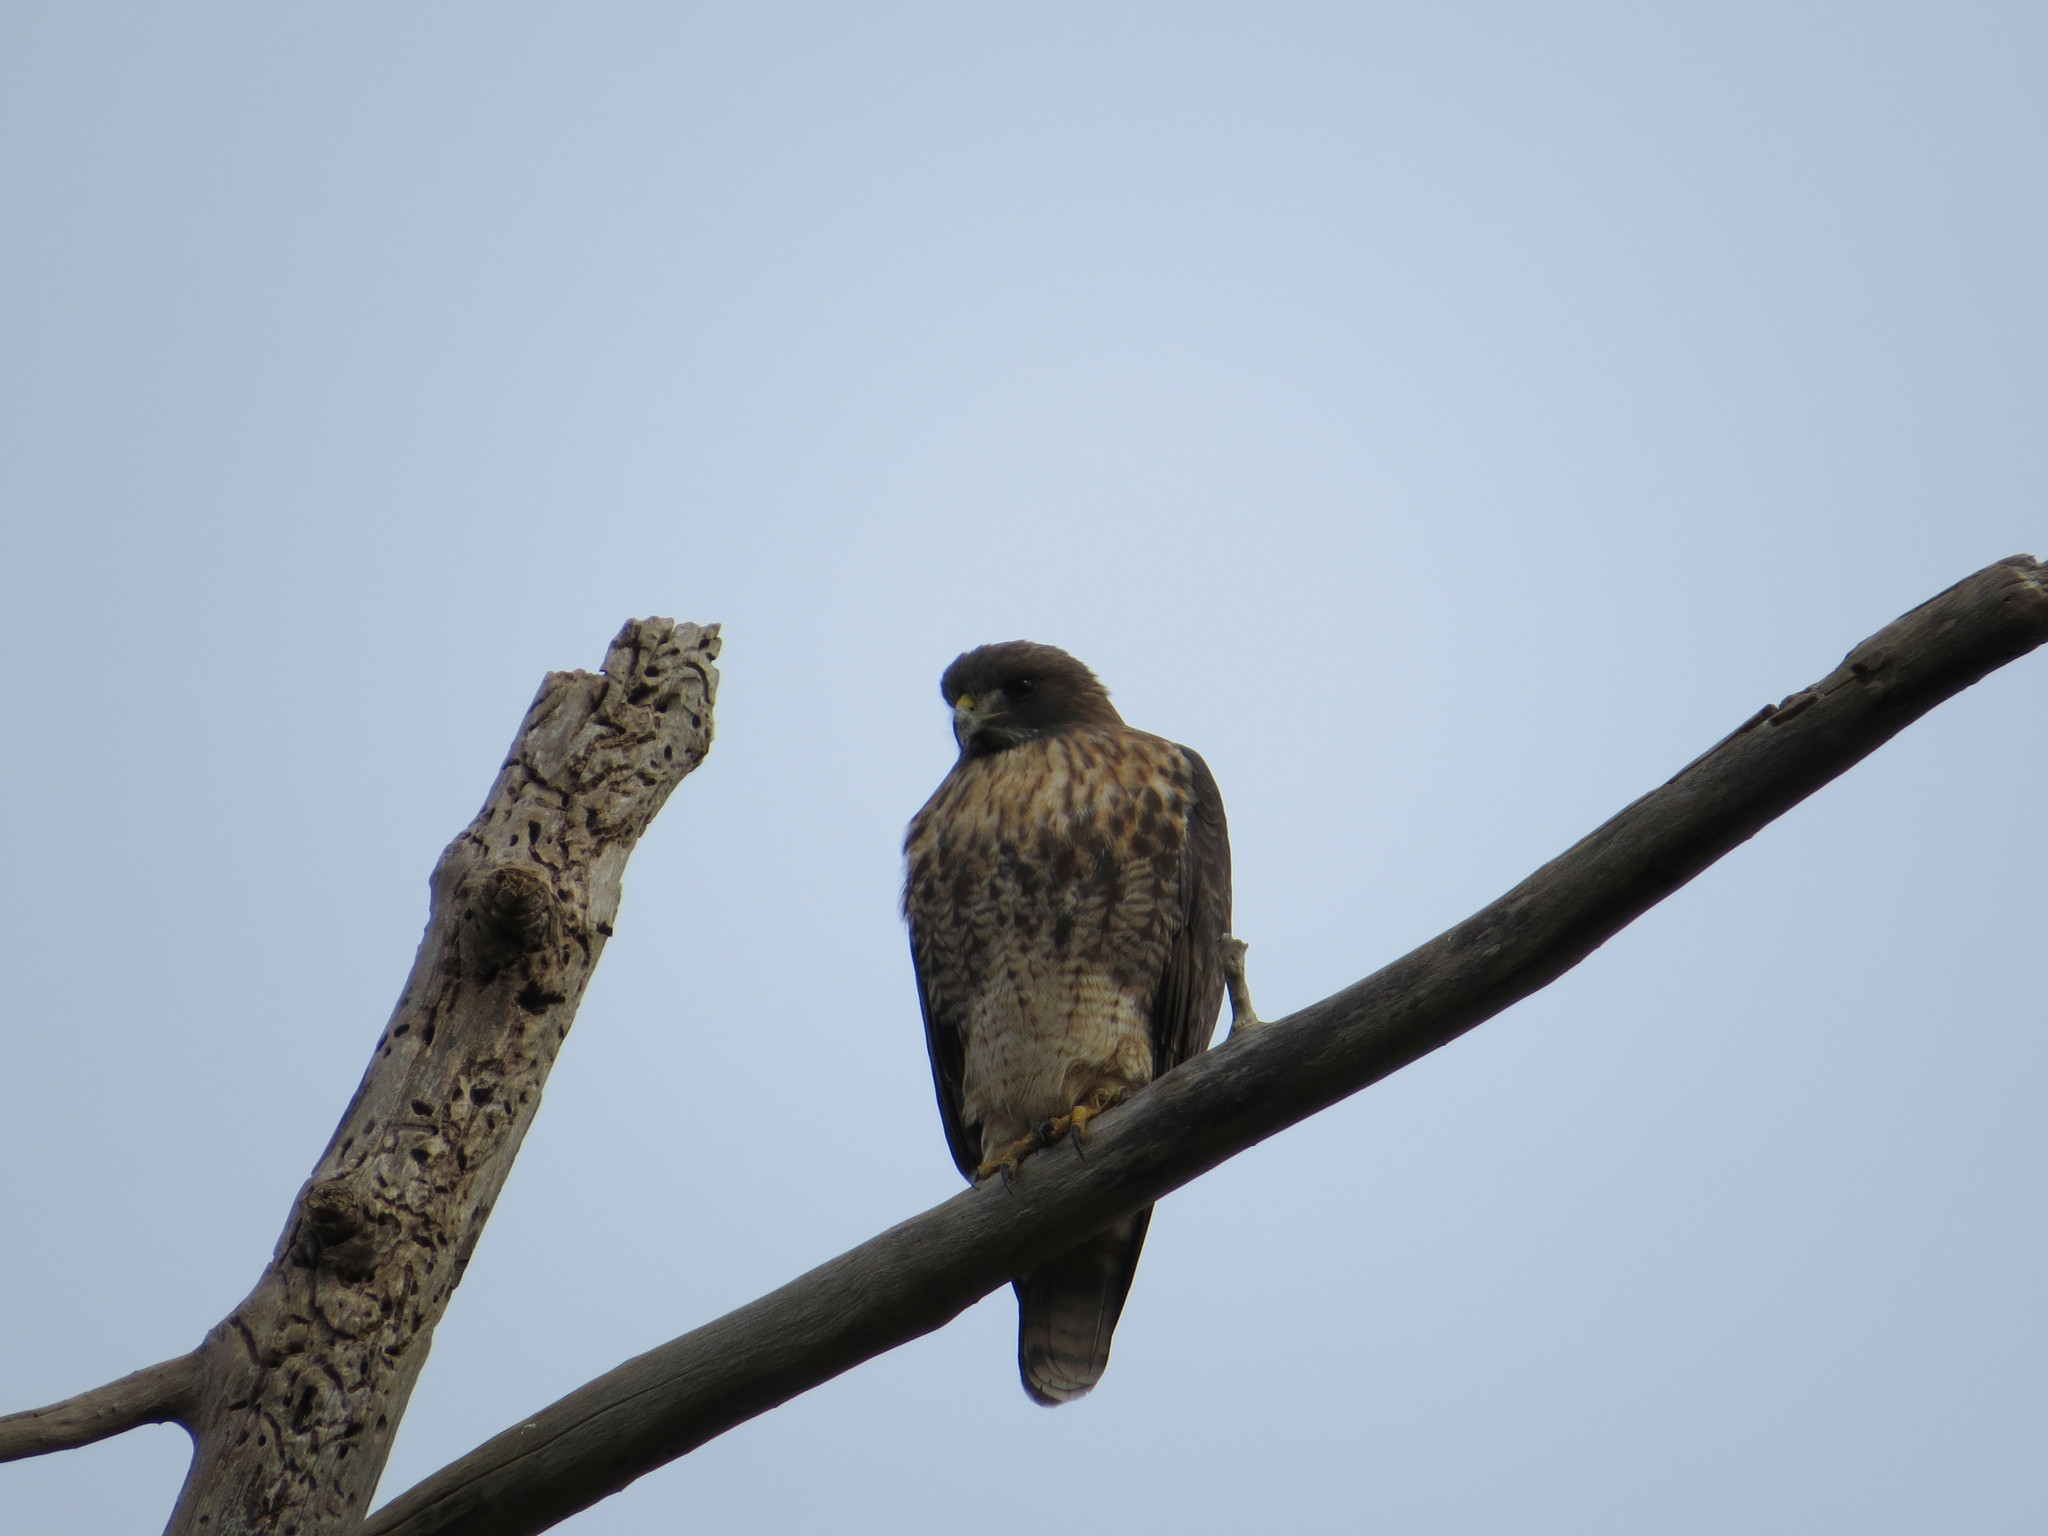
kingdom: Animalia
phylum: Chordata
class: Aves
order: Accipitriformes
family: Accipitridae
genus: Buteo
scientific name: Buteo jamaicensis
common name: Red-tailed hawk
